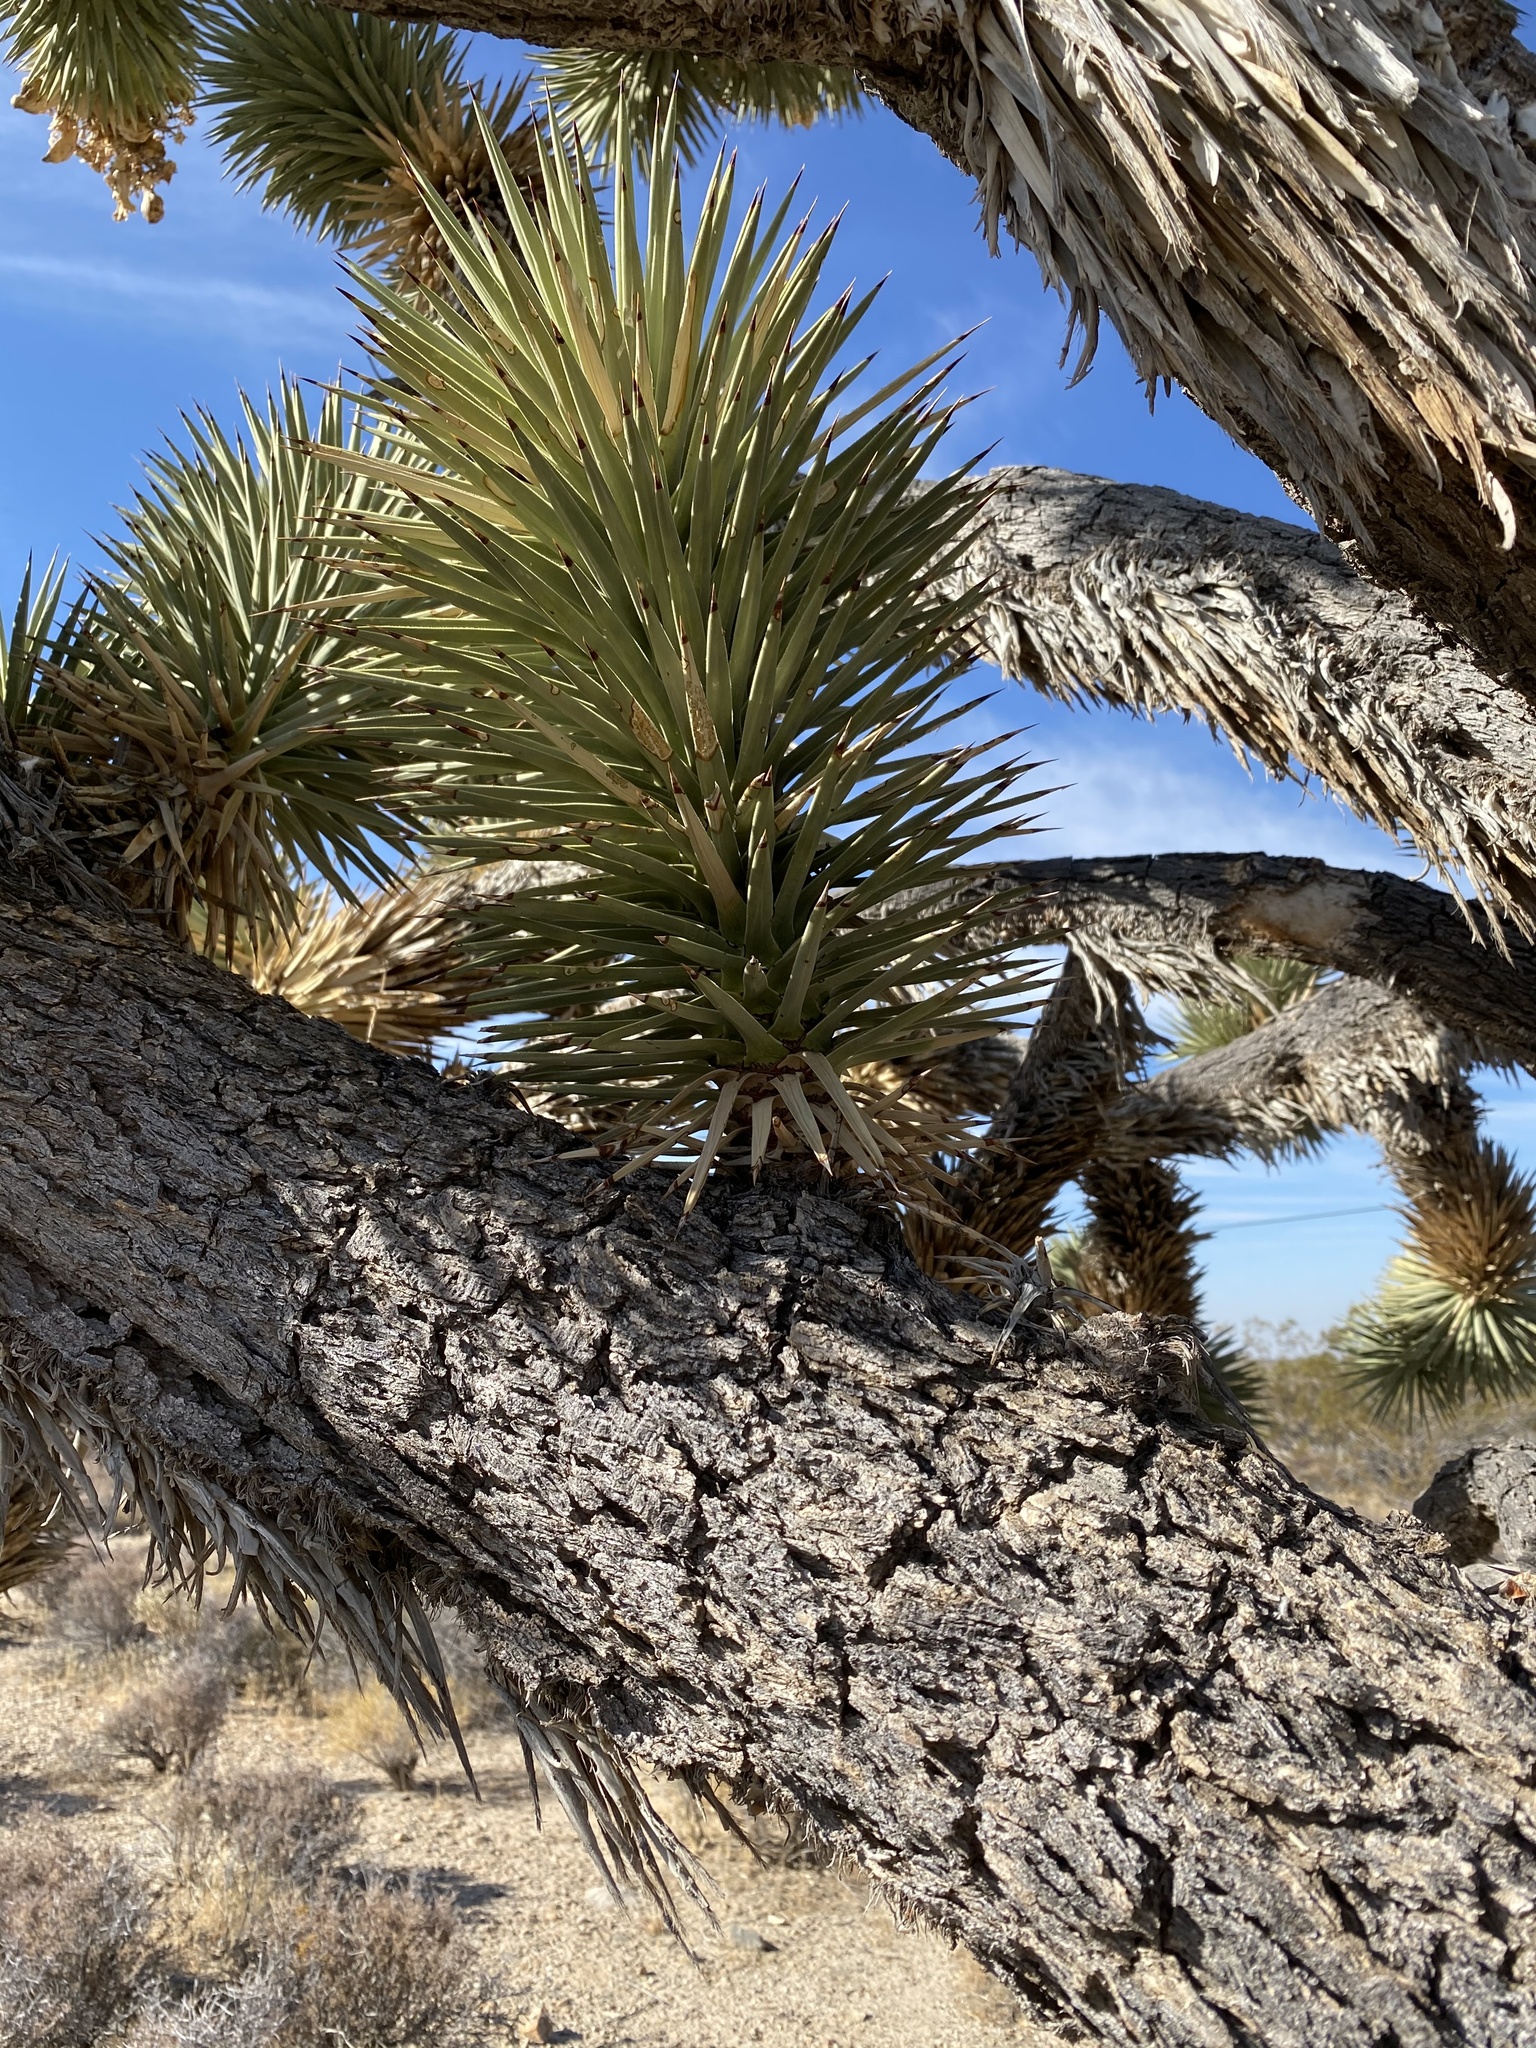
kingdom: Plantae
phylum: Tracheophyta
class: Liliopsida
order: Asparagales
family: Asparagaceae
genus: Yucca
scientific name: Yucca brevifolia
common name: Joshua tree
